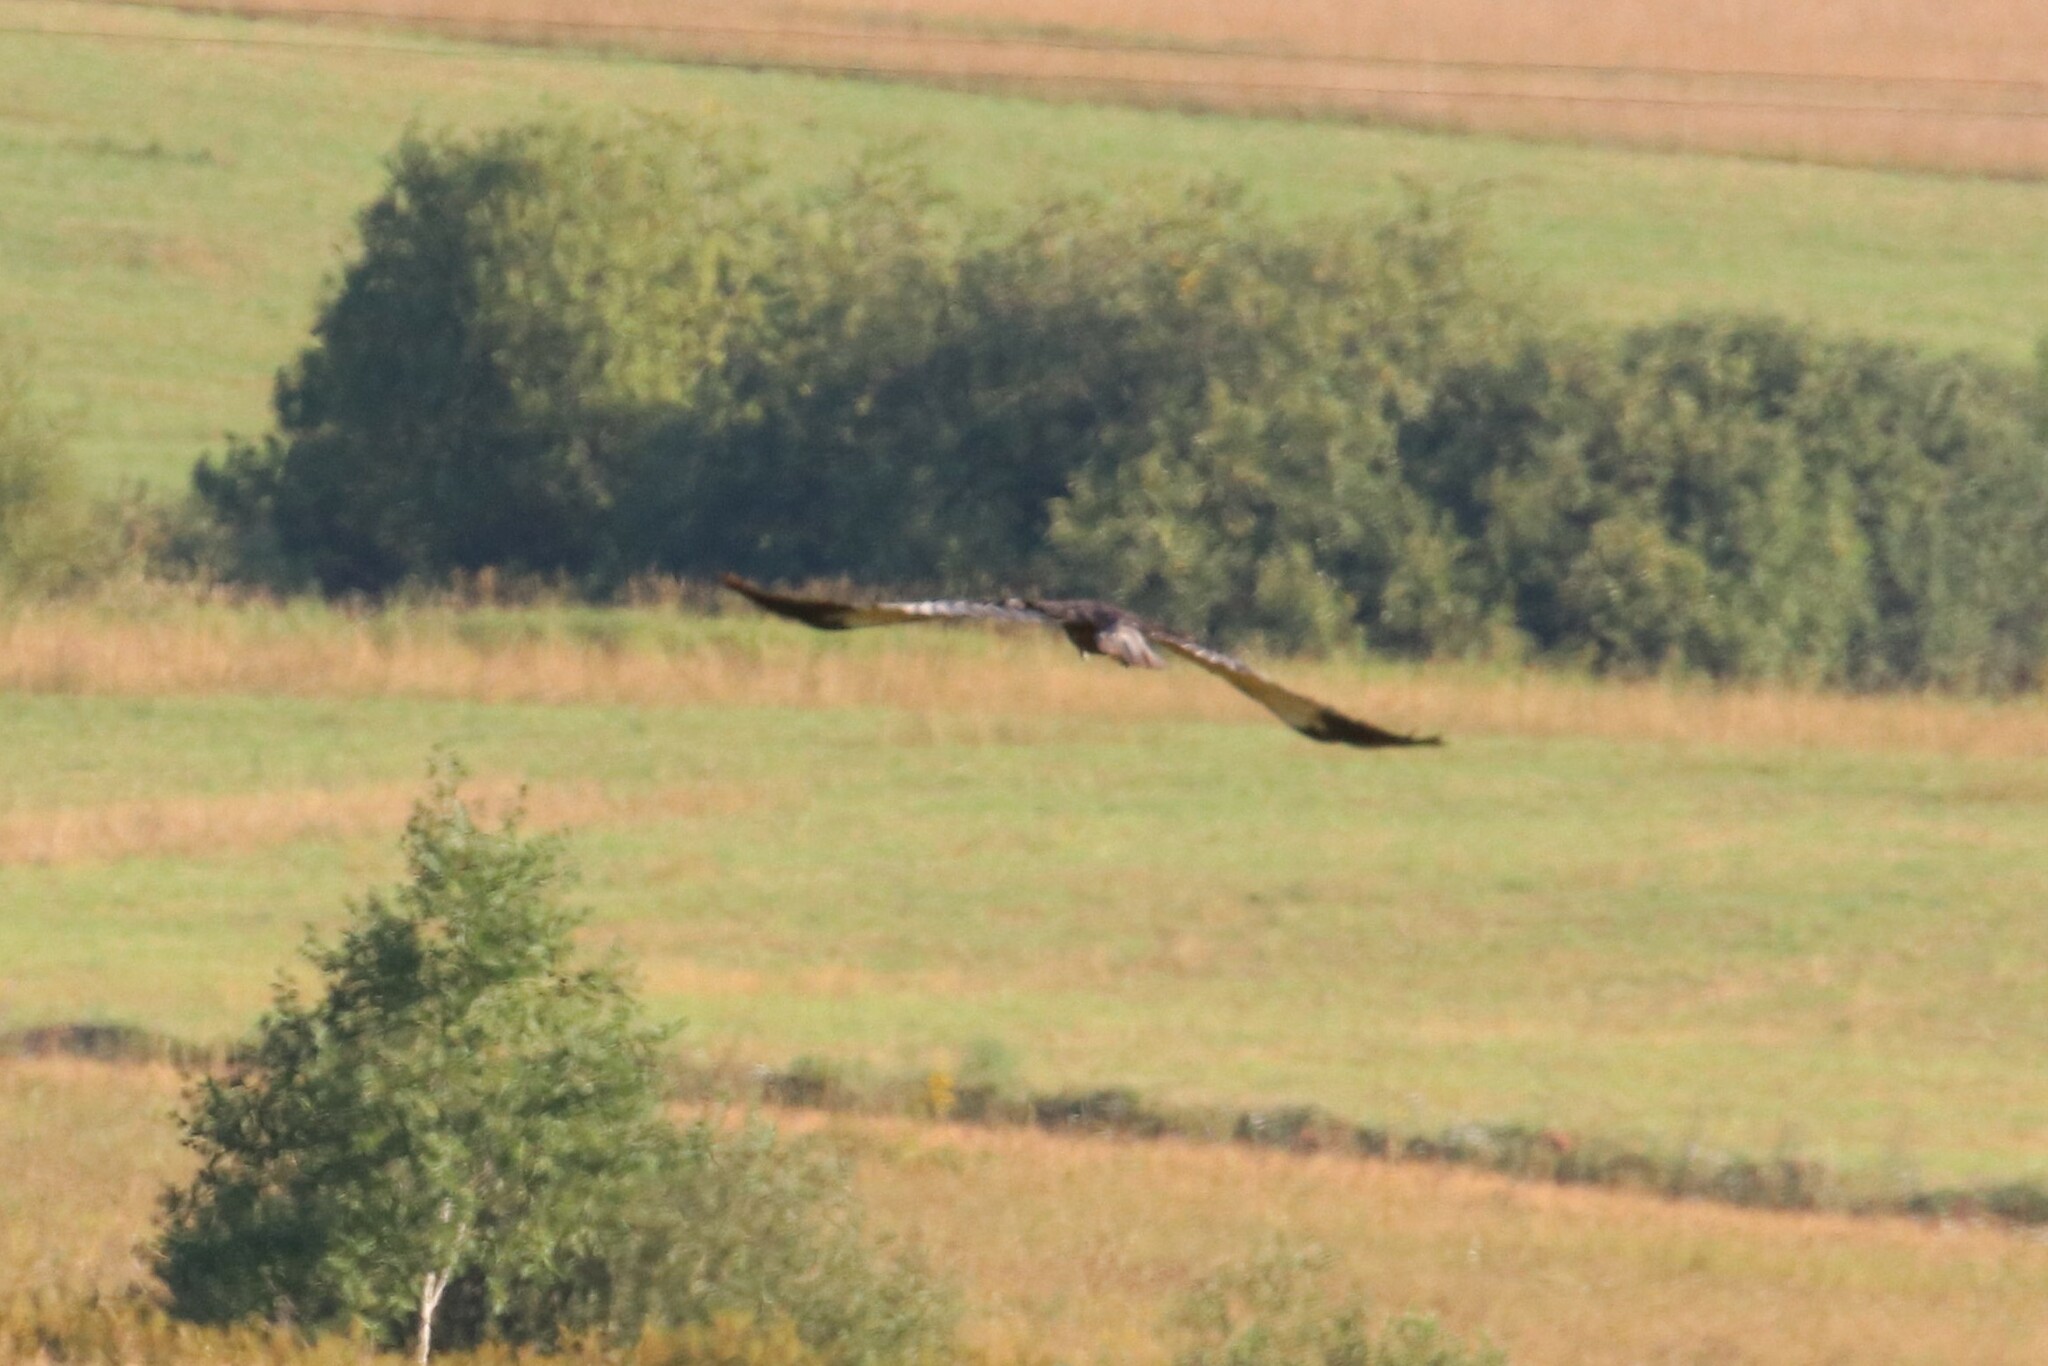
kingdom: Animalia
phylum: Chordata
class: Aves
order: Accipitriformes
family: Accipitridae
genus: Circus
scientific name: Circus aeruginosus
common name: Western marsh harrier
